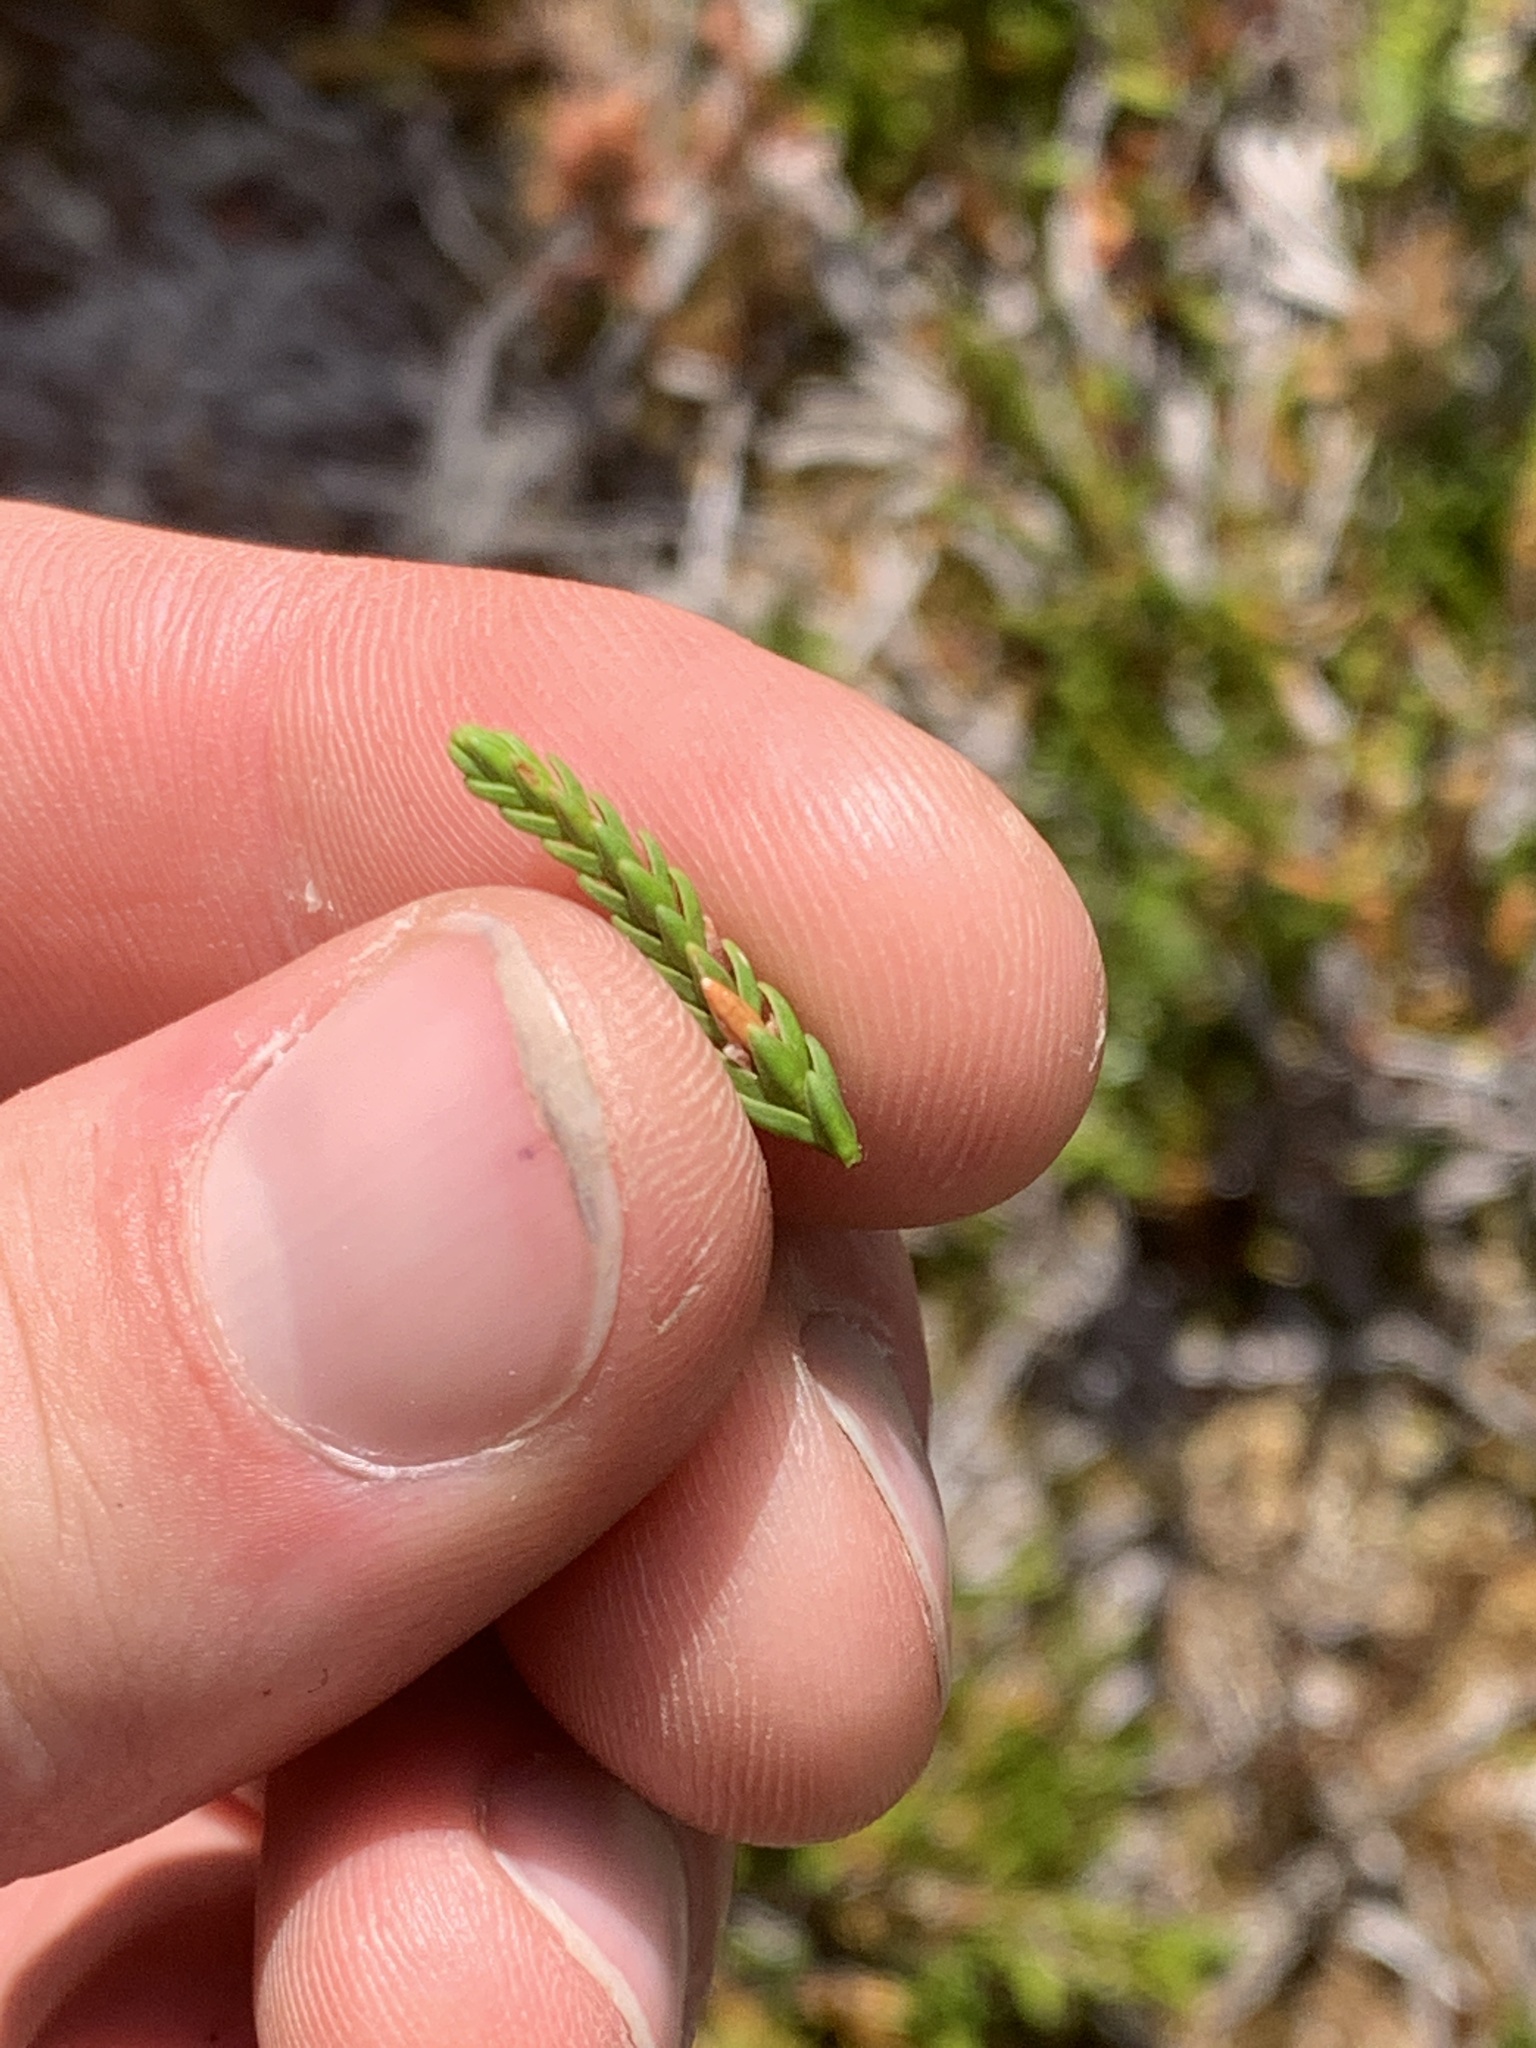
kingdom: Plantae
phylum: Tracheophyta
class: Magnoliopsida
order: Ericales
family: Ericaceae
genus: Cassiope
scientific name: Cassiope mertensiana
